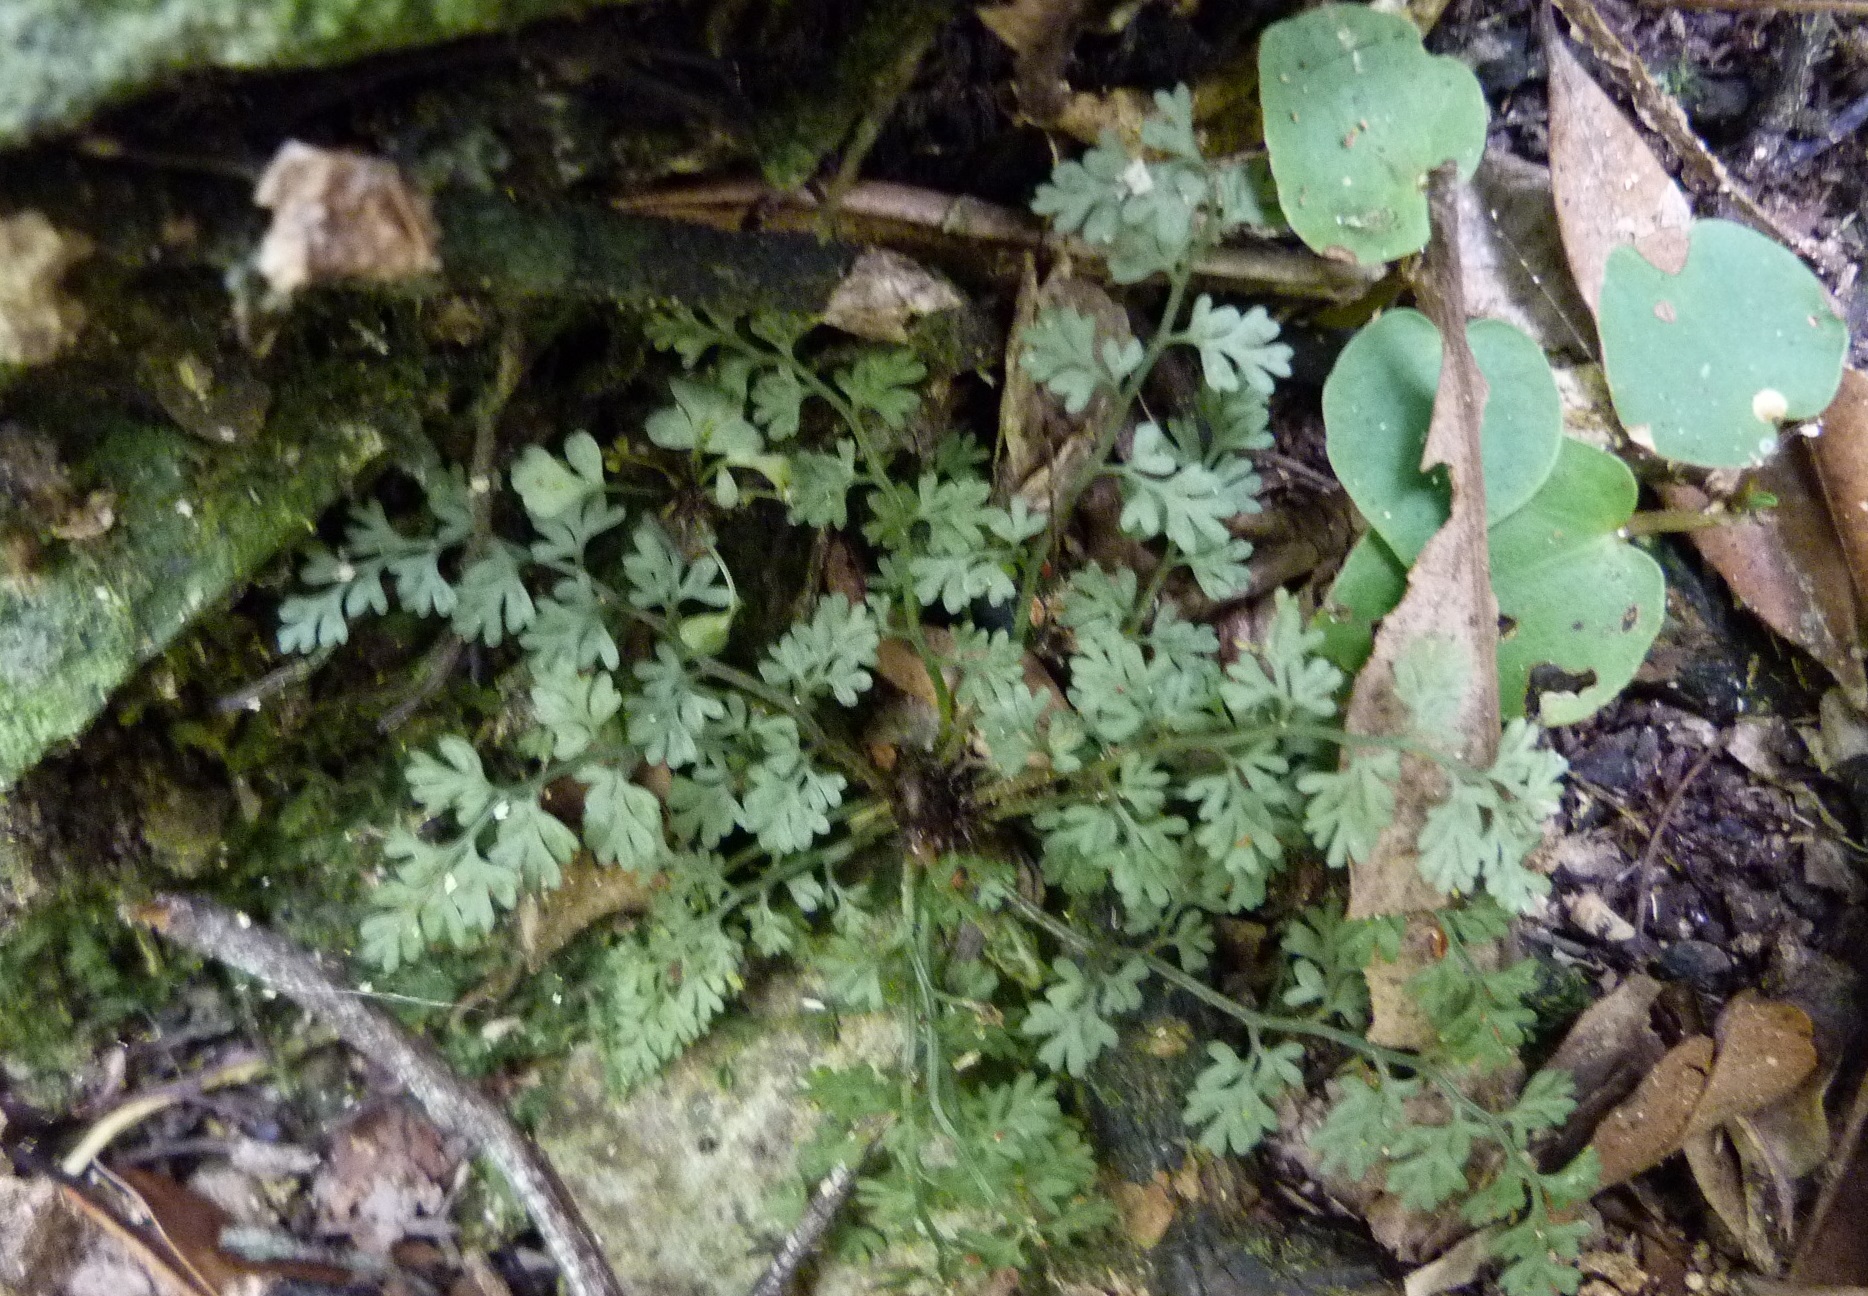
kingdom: Plantae
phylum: Tracheophyta
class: Polypodiopsida
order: Polypodiales
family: Aspleniaceae
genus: Asplenium
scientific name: Asplenium hookerianum
